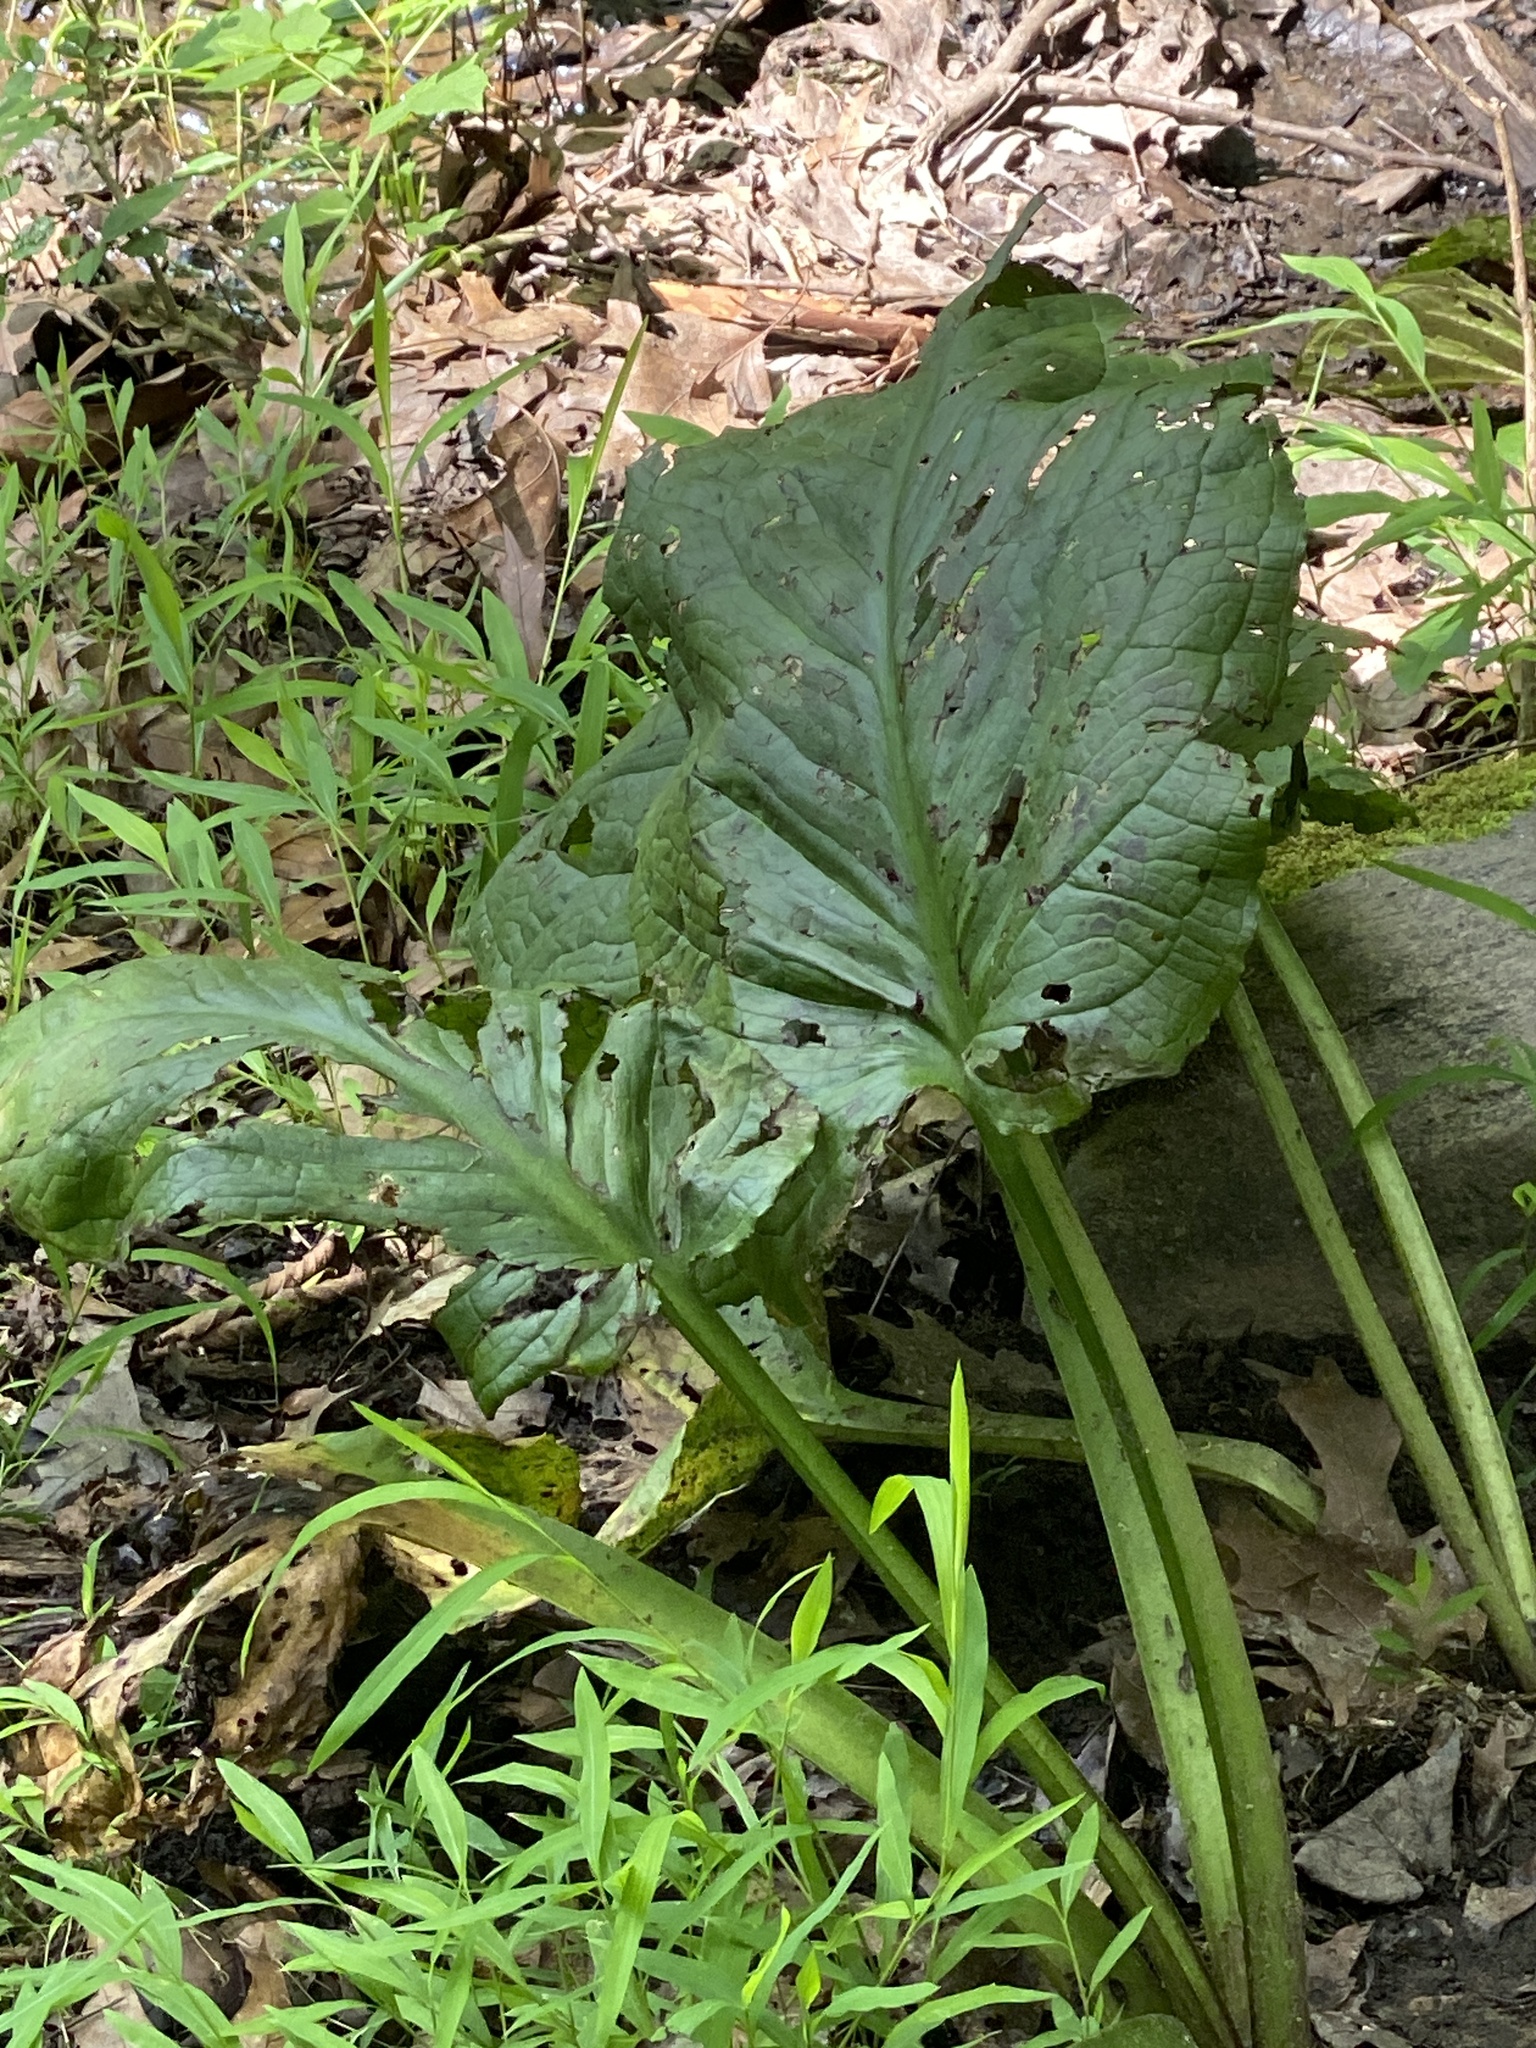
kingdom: Plantae
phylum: Tracheophyta
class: Liliopsida
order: Alismatales
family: Araceae
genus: Symplocarpus
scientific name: Symplocarpus foetidus
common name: Eastern skunk cabbage
